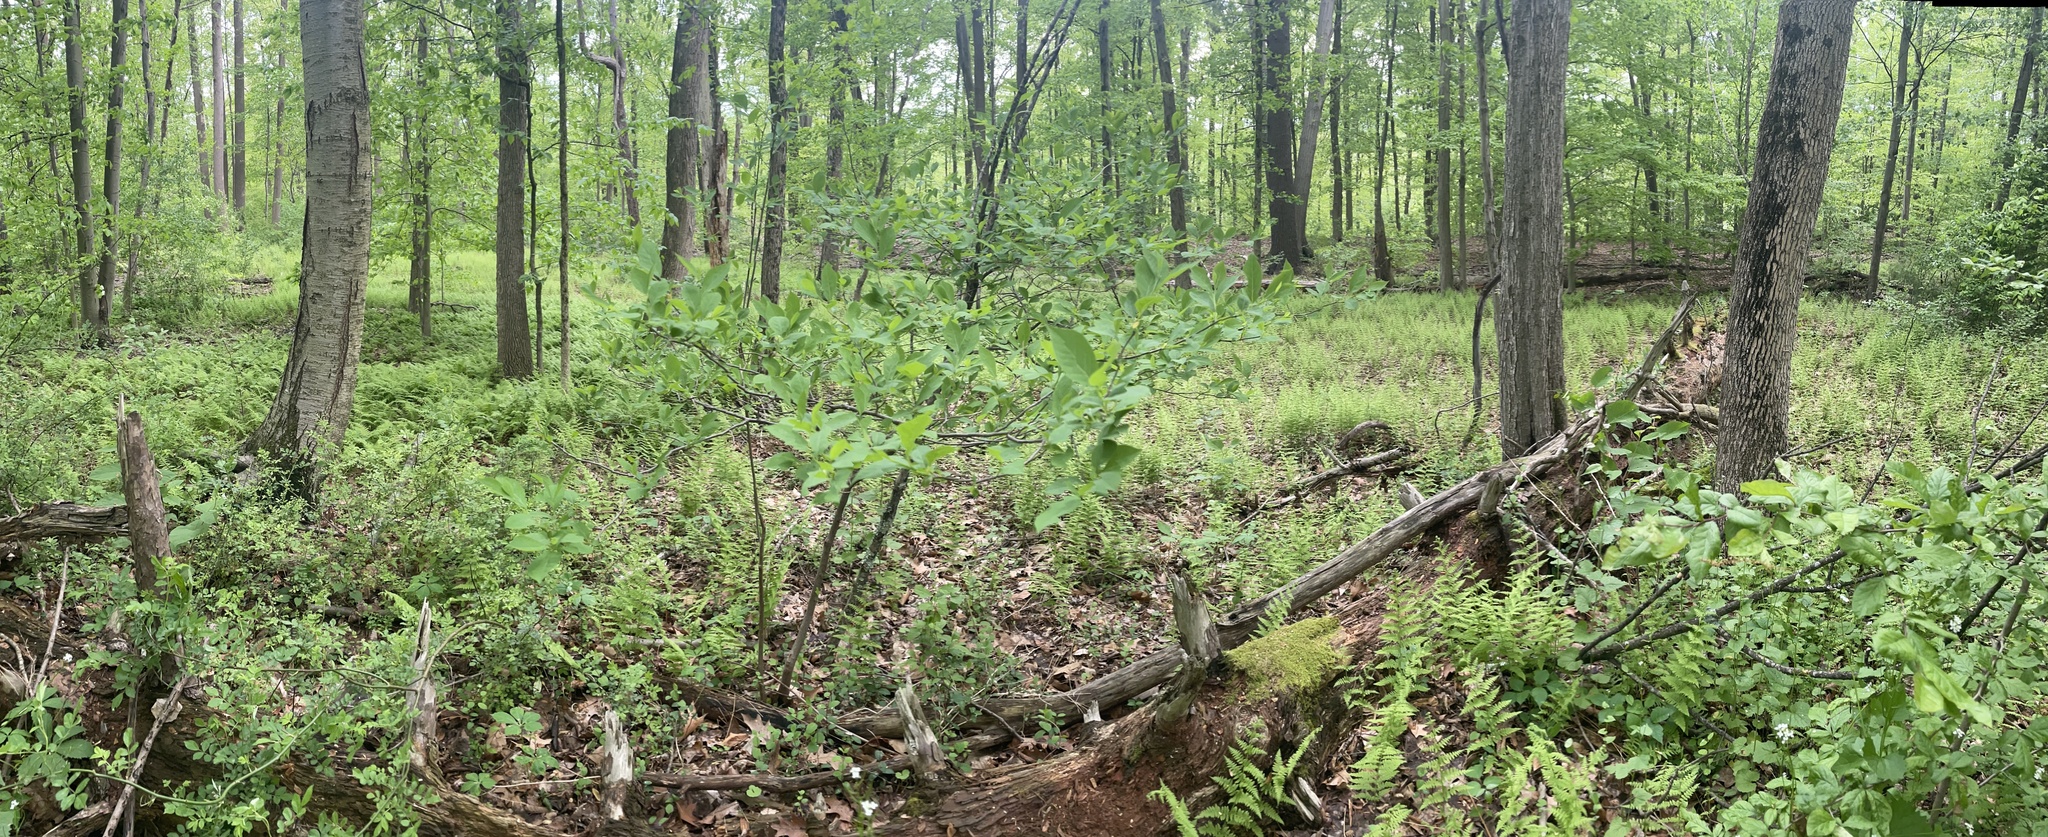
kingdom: Plantae
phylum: Tracheophyta
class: Polypodiopsida
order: Polypodiales
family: Dryopteridaceae
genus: Dryopteris
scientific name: Dryopteris carthusiana
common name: Narrow buckler-fern
